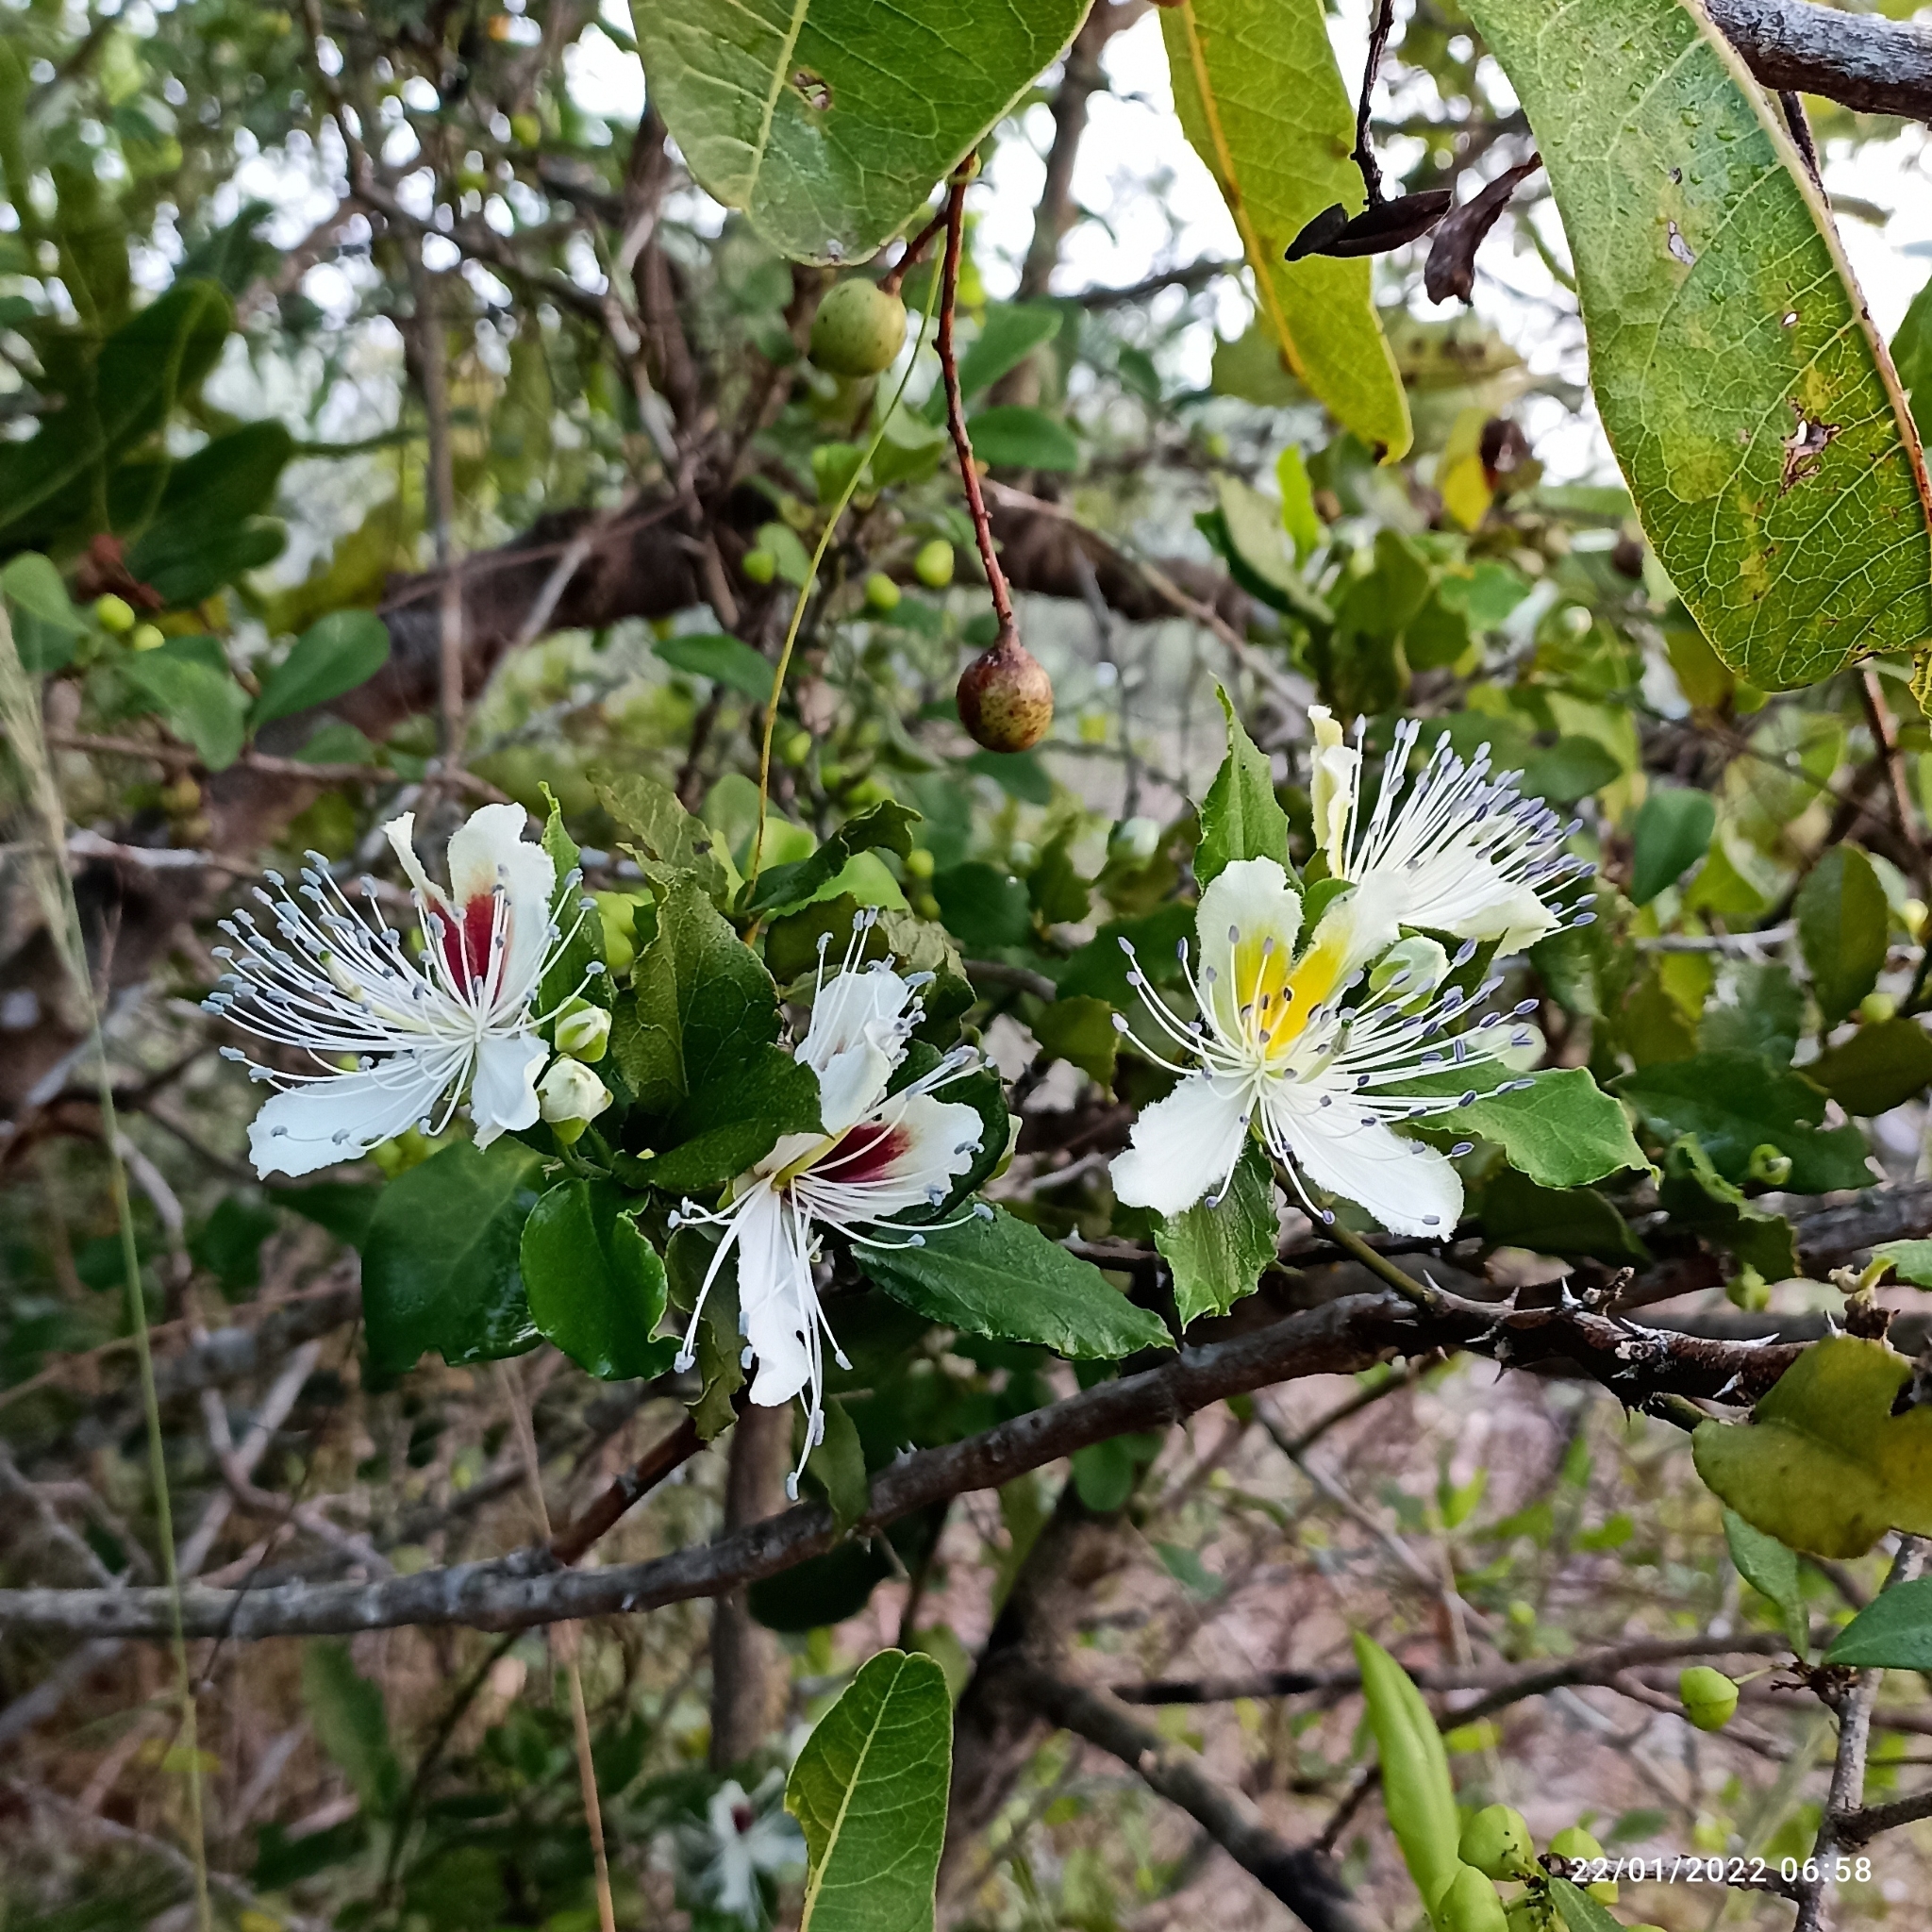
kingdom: Plantae
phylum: Tracheophyta
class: Magnoliopsida
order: Brassicales
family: Capparaceae
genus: Capparis
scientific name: Capparis brevispina
